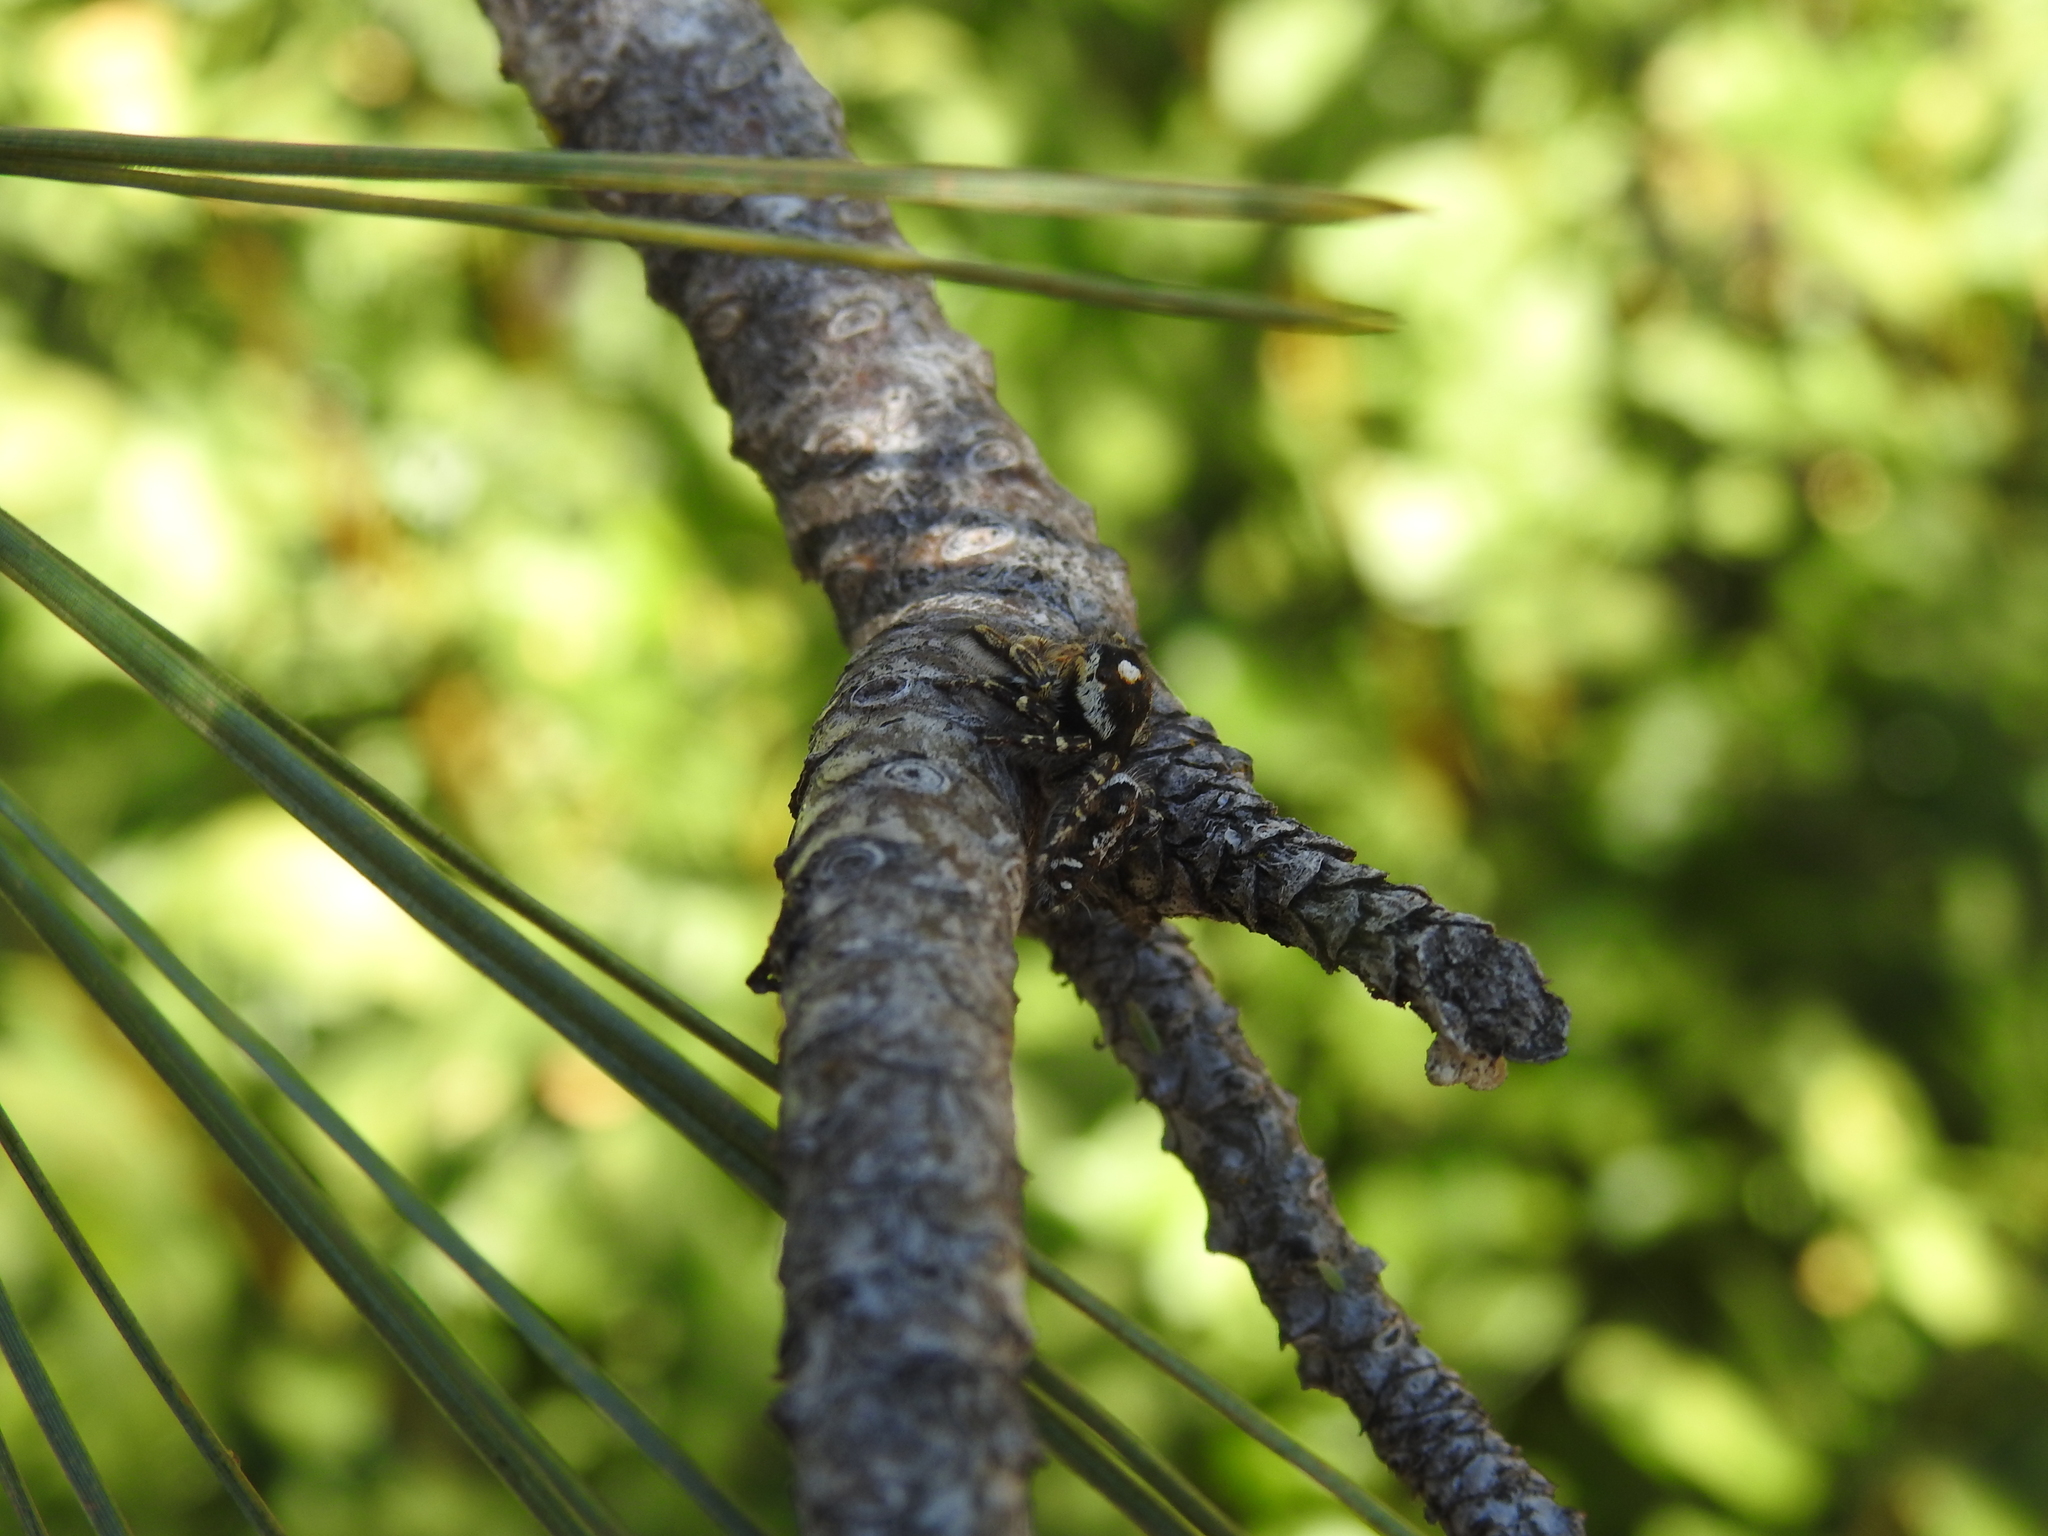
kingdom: Animalia
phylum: Arthropoda
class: Arachnida
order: Araneae
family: Salticidae
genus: Phidippus
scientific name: Phidippus comatus
